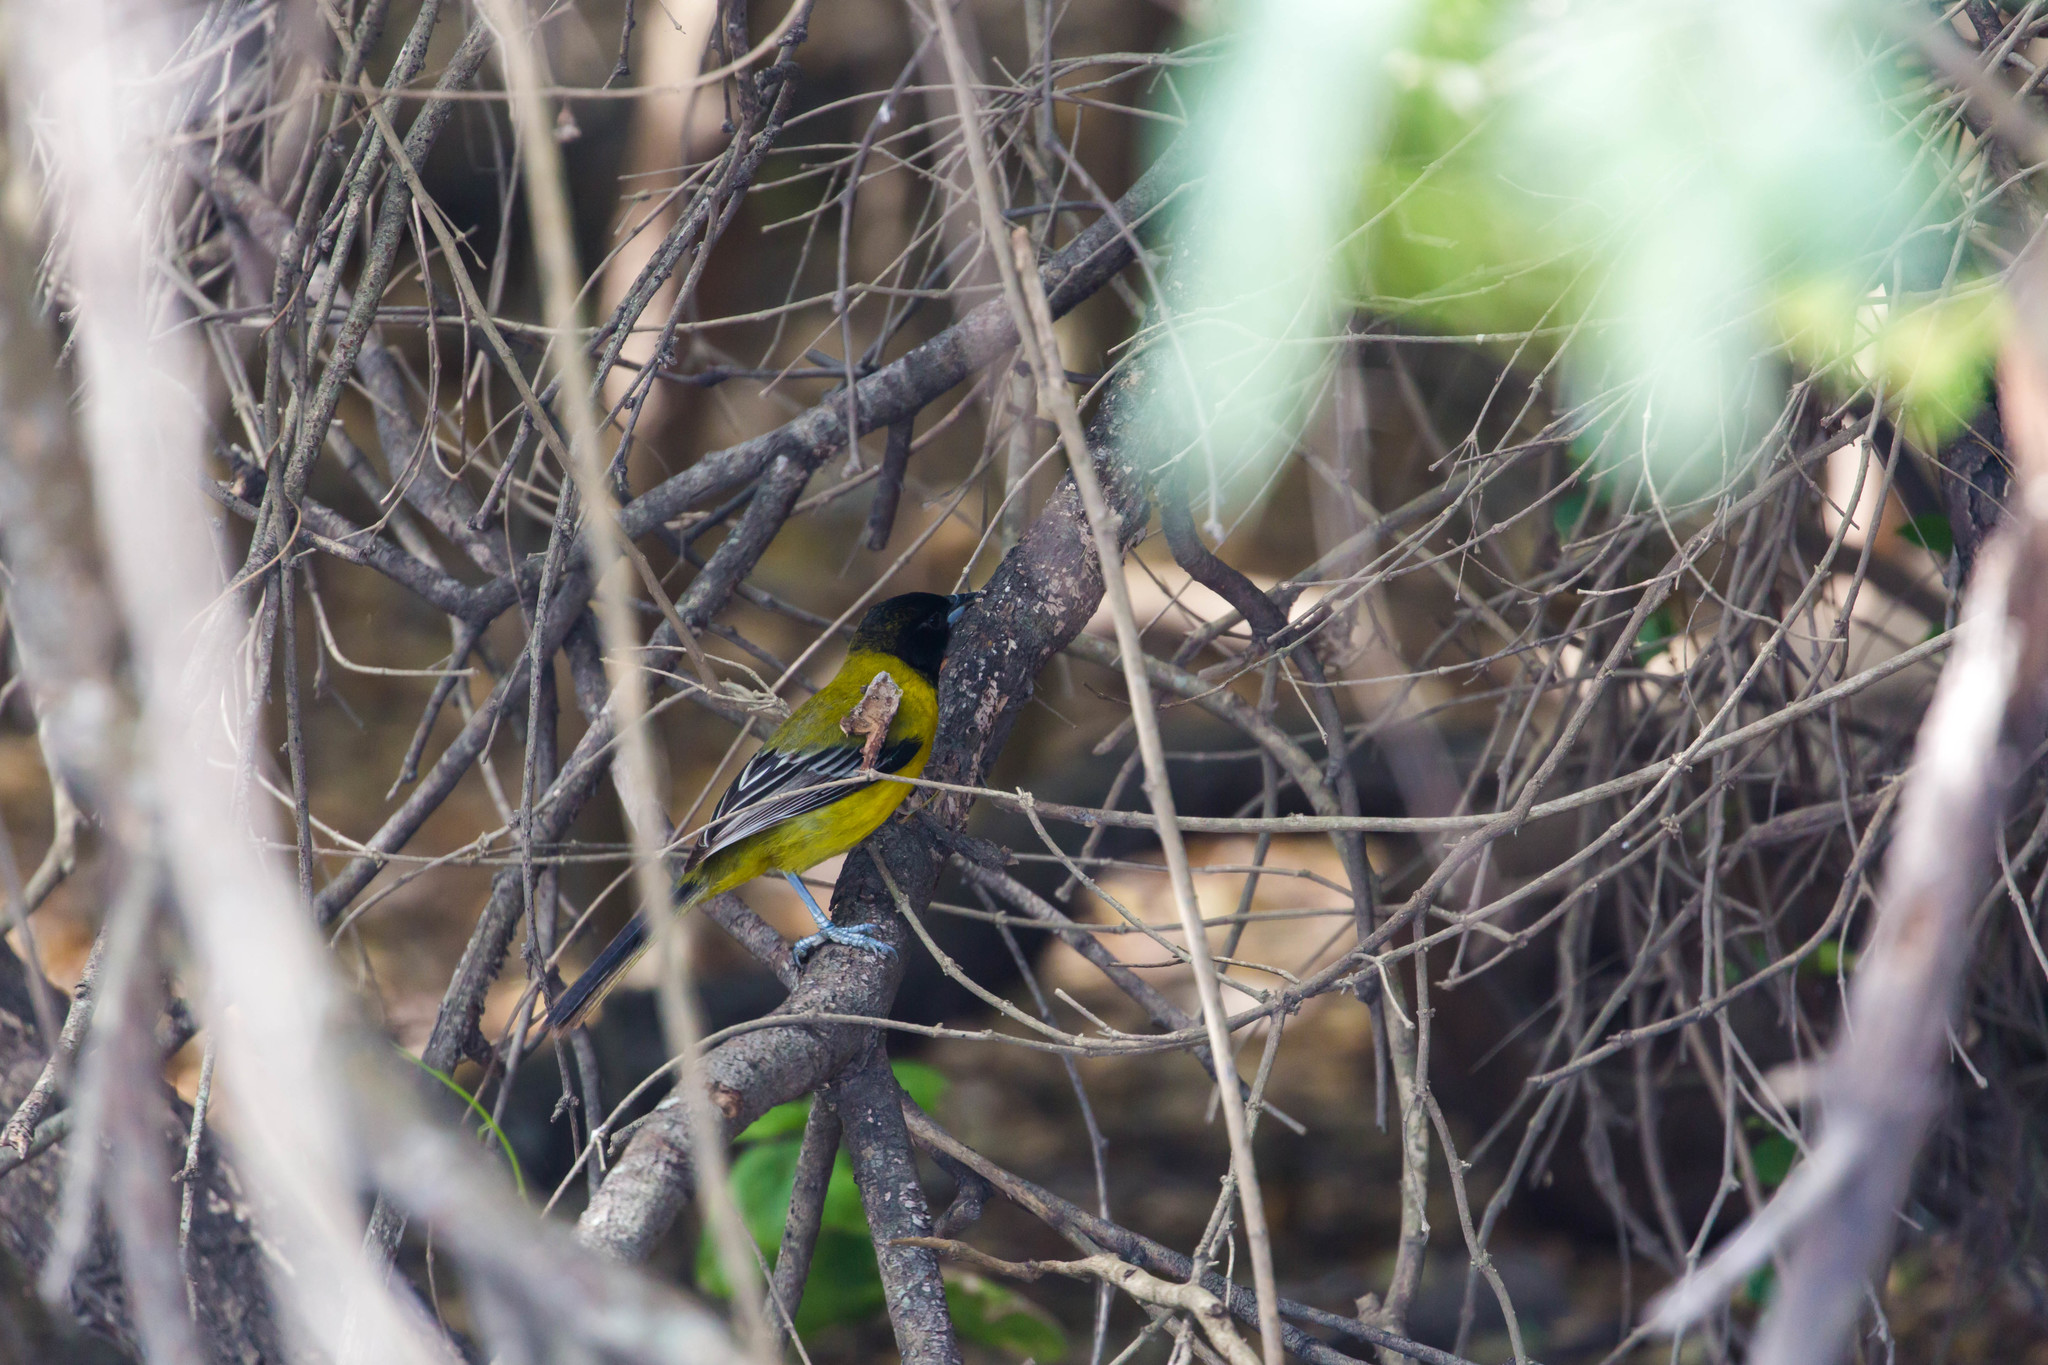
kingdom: Animalia
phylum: Chordata
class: Aves
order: Passeriformes
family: Icteridae
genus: Icterus
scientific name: Icterus graduacauda
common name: Audubon's oriole
